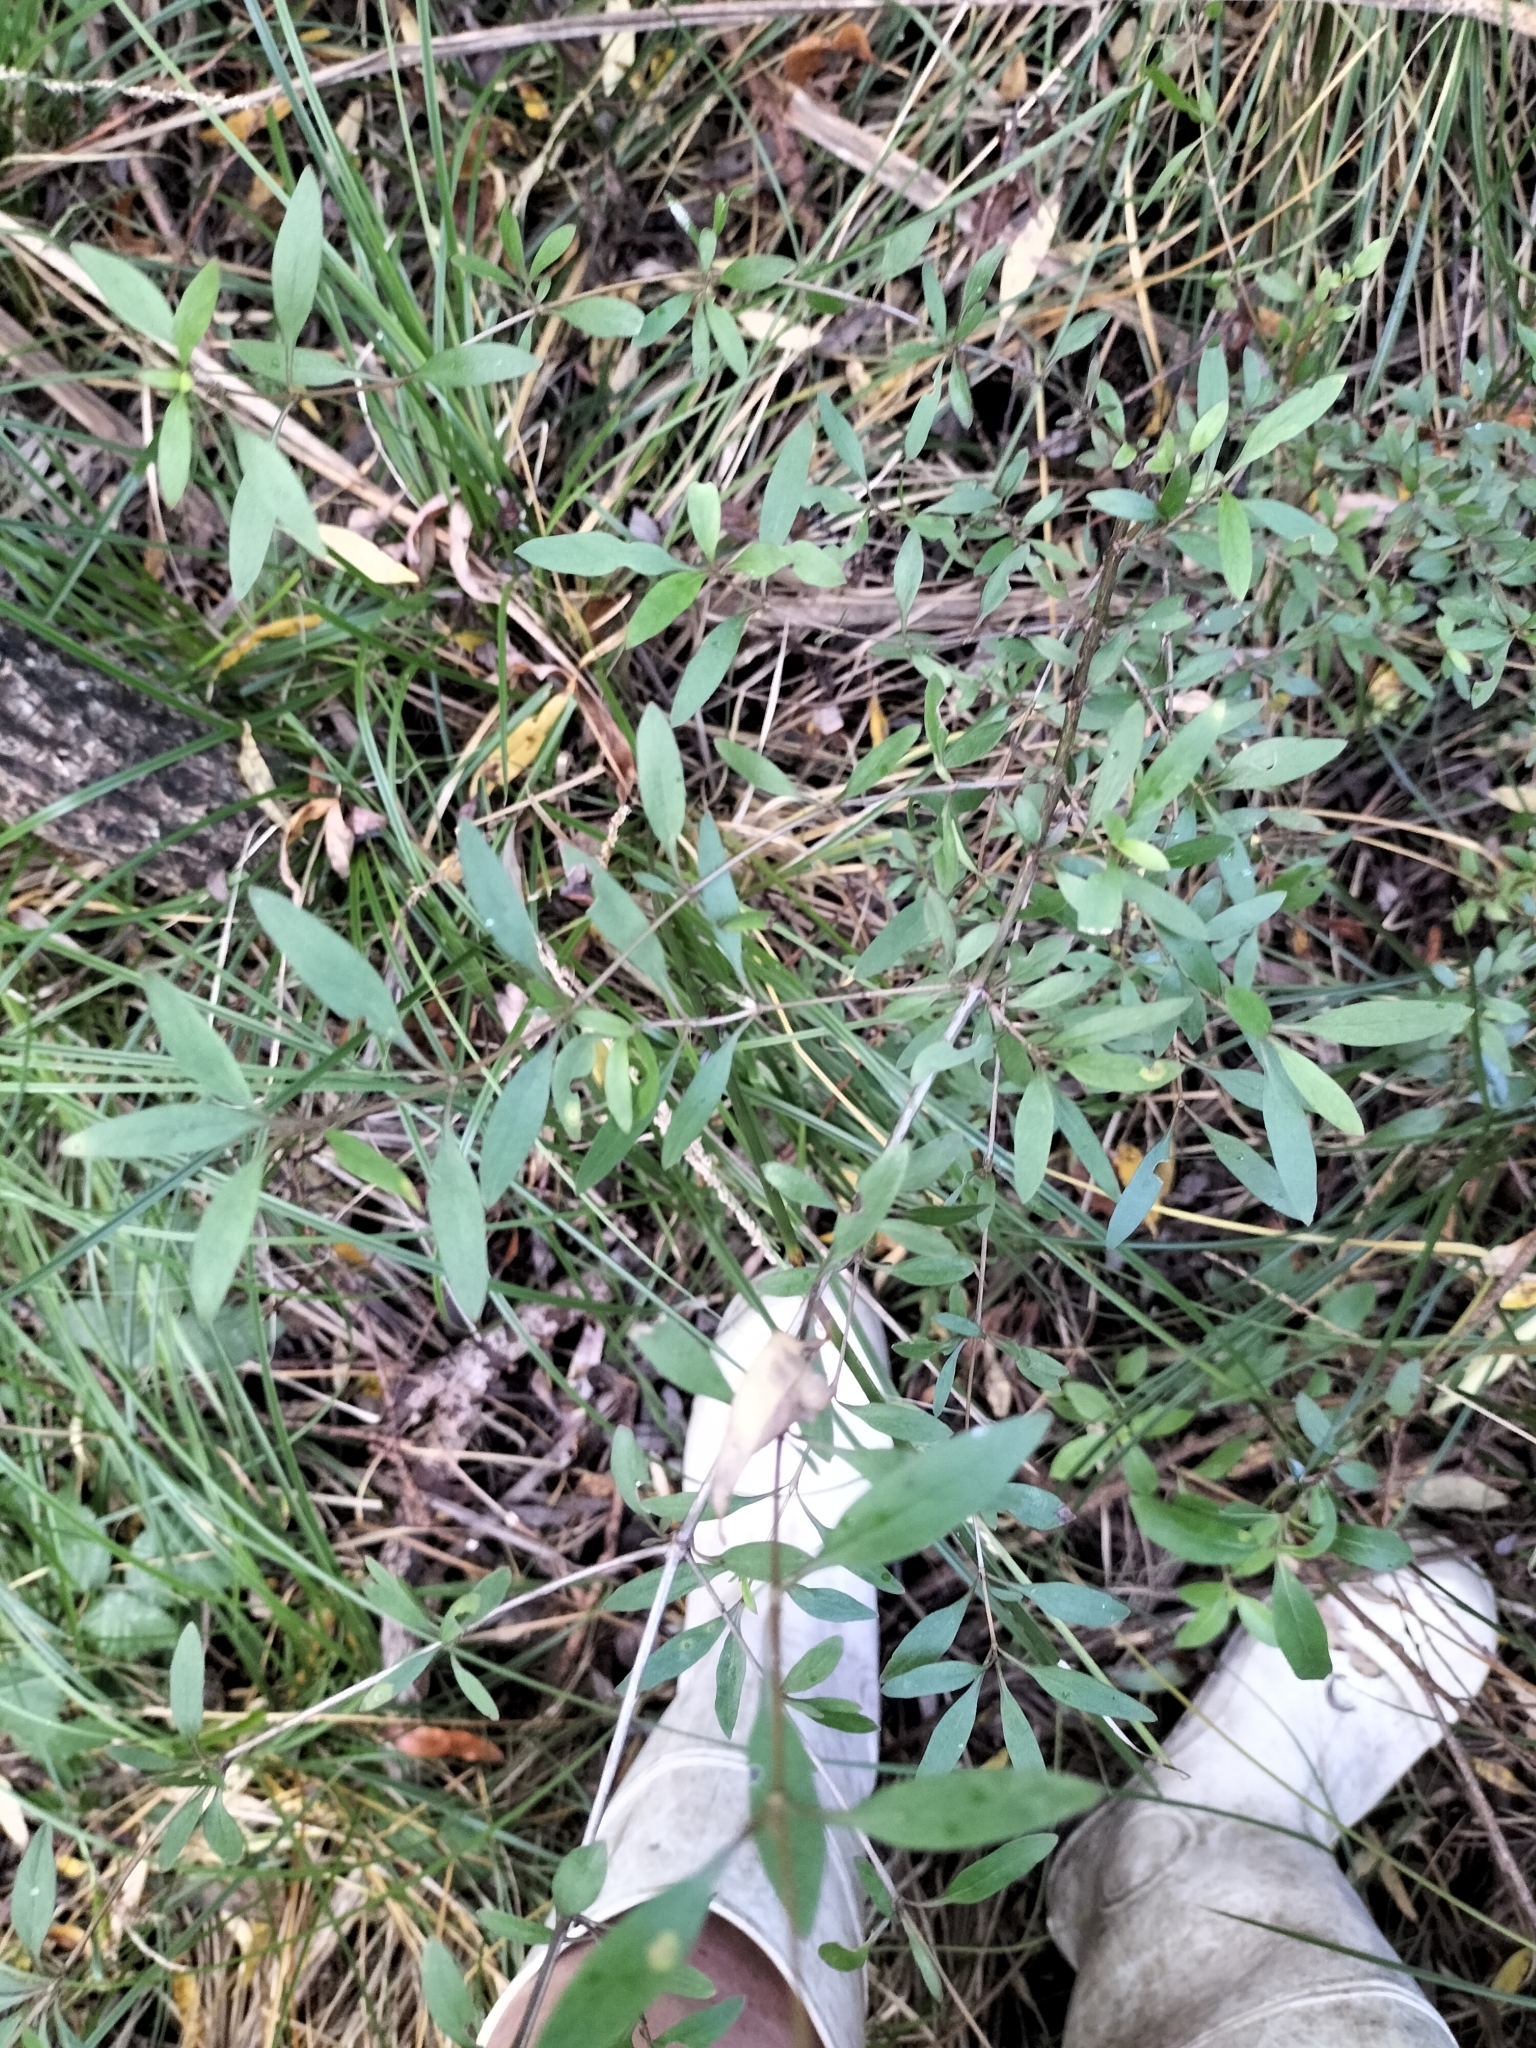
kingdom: Plantae
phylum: Tracheophyta
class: Magnoliopsida
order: Gentianales
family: Rubiaceae
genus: Coprosma
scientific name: Coprosma cunninghamii
